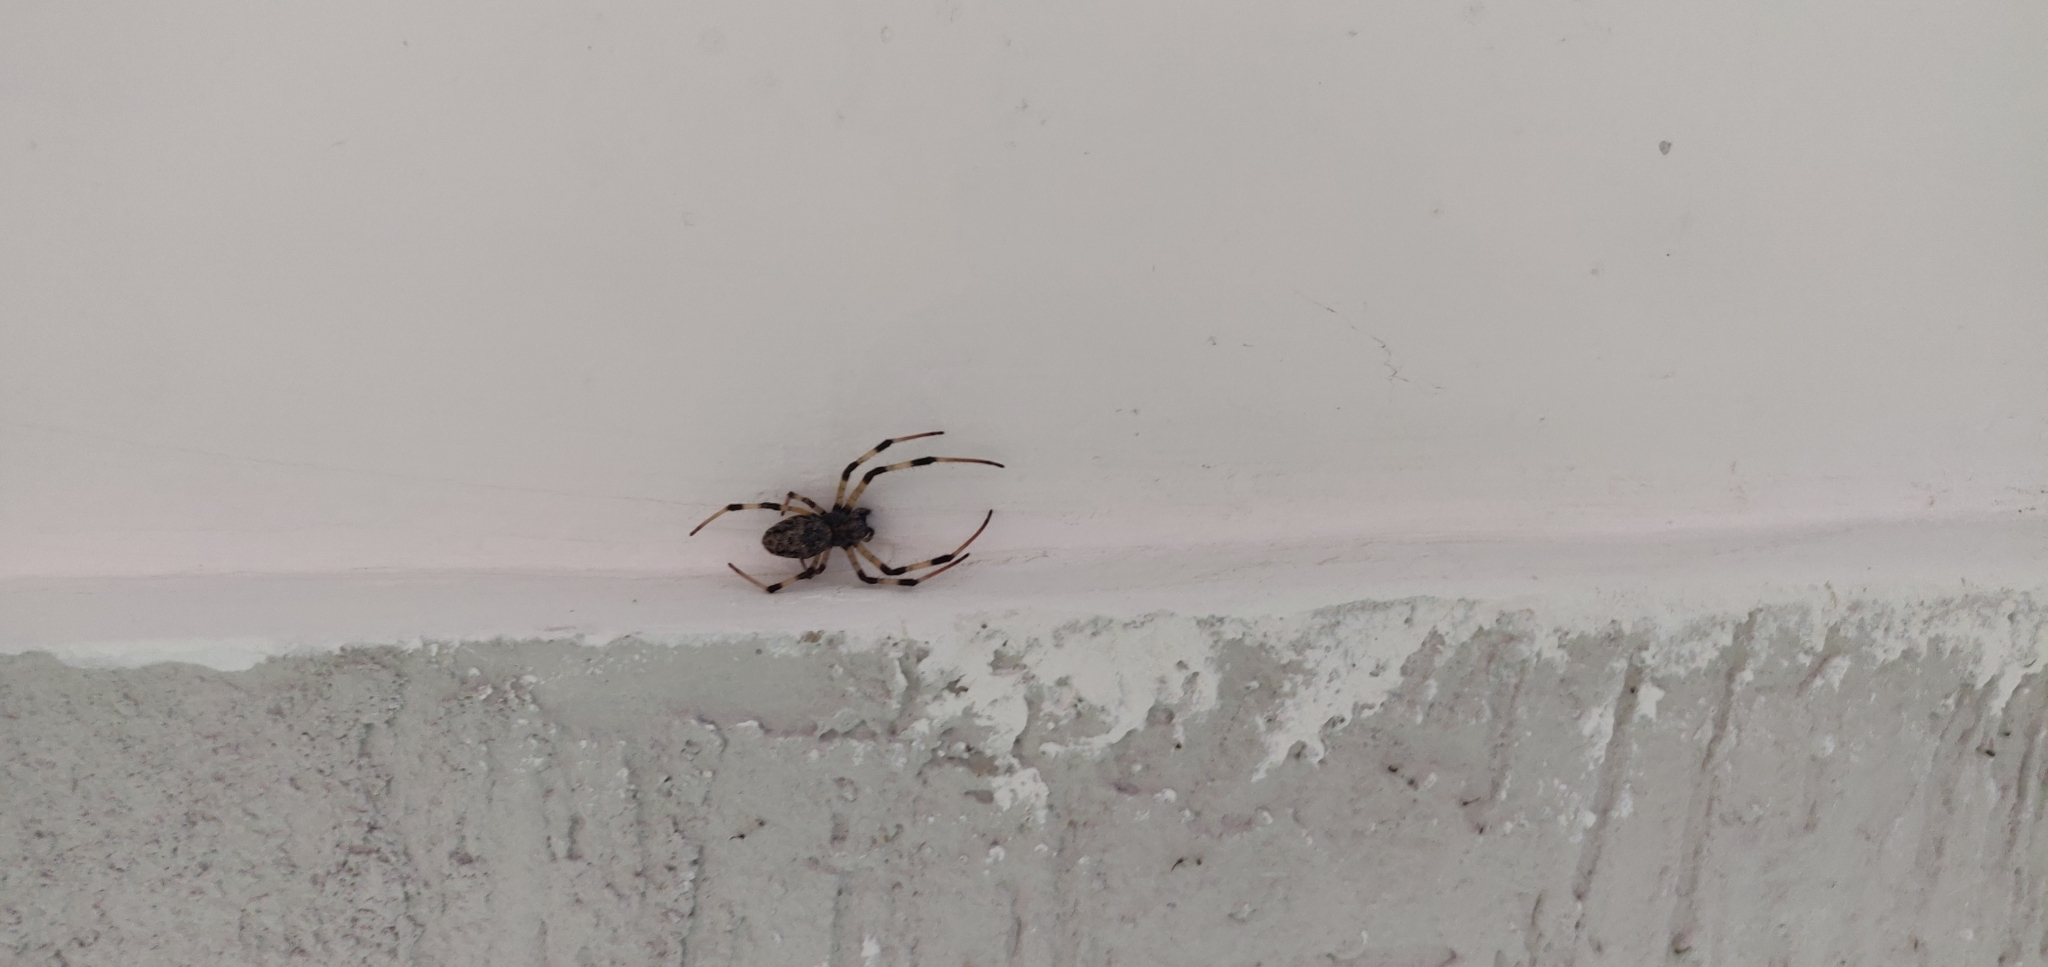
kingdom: Animalia
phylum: Arthropoda
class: Arachnida
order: Araneae
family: Araneidae
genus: Nephilingis
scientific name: Nephilingis cruentata
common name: African hermit spider
